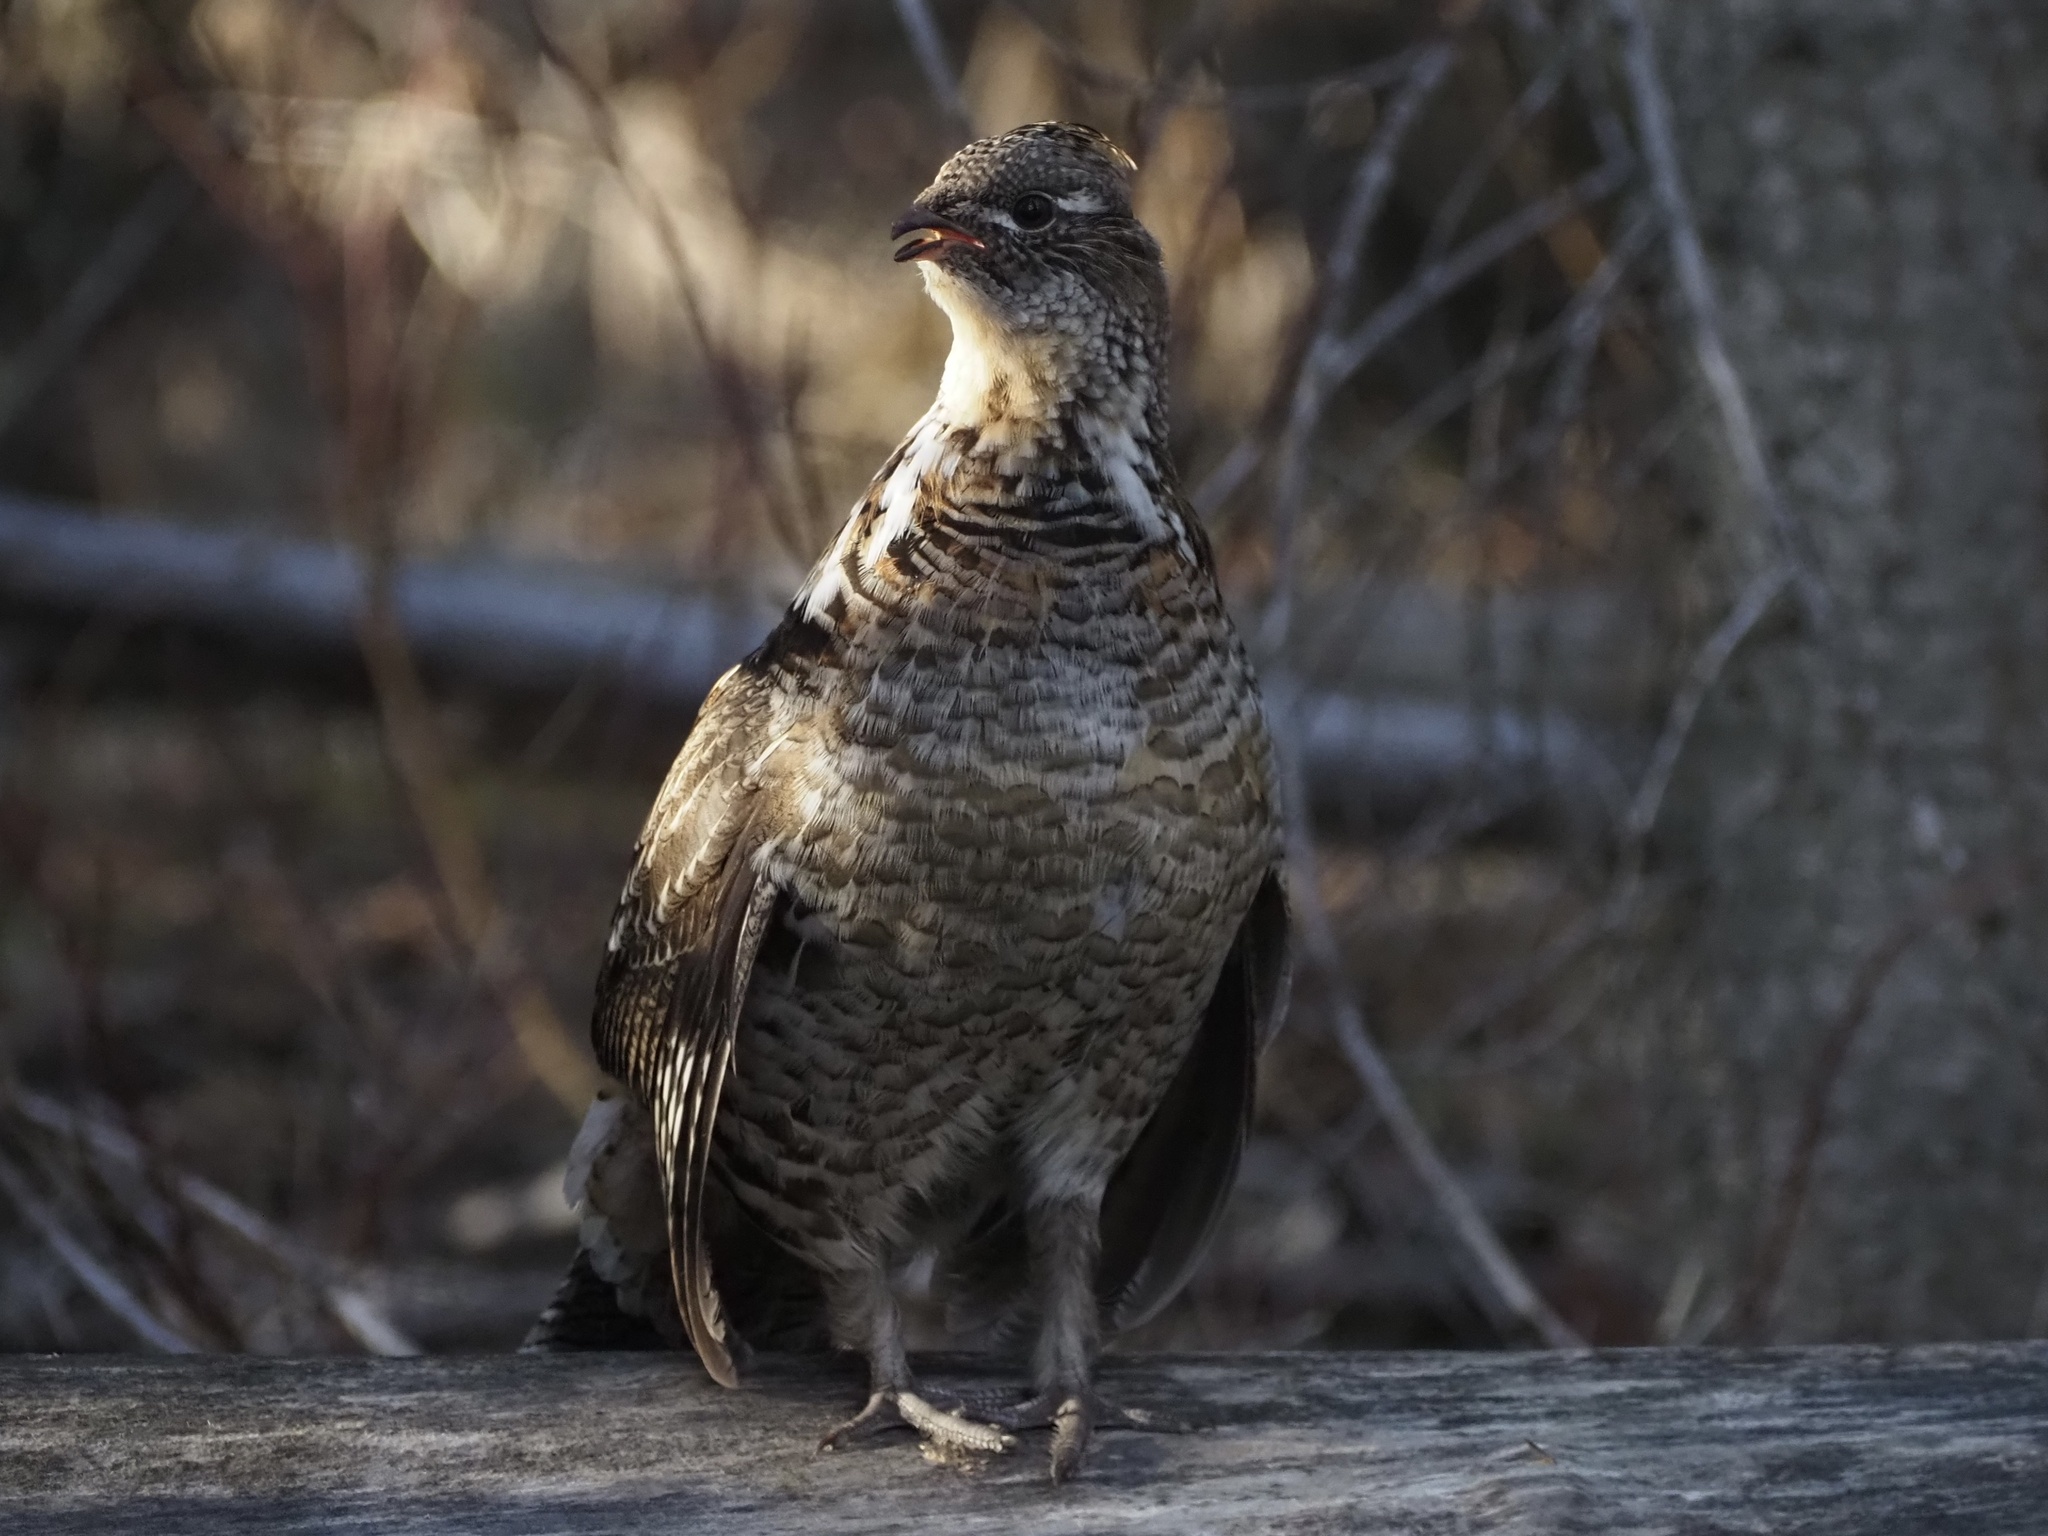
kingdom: Animalia
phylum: Chordata
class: Aves
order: Galliformes
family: Phasianidae
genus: Bonasa
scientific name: Bonasa umbellus
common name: Ruffed grouse
